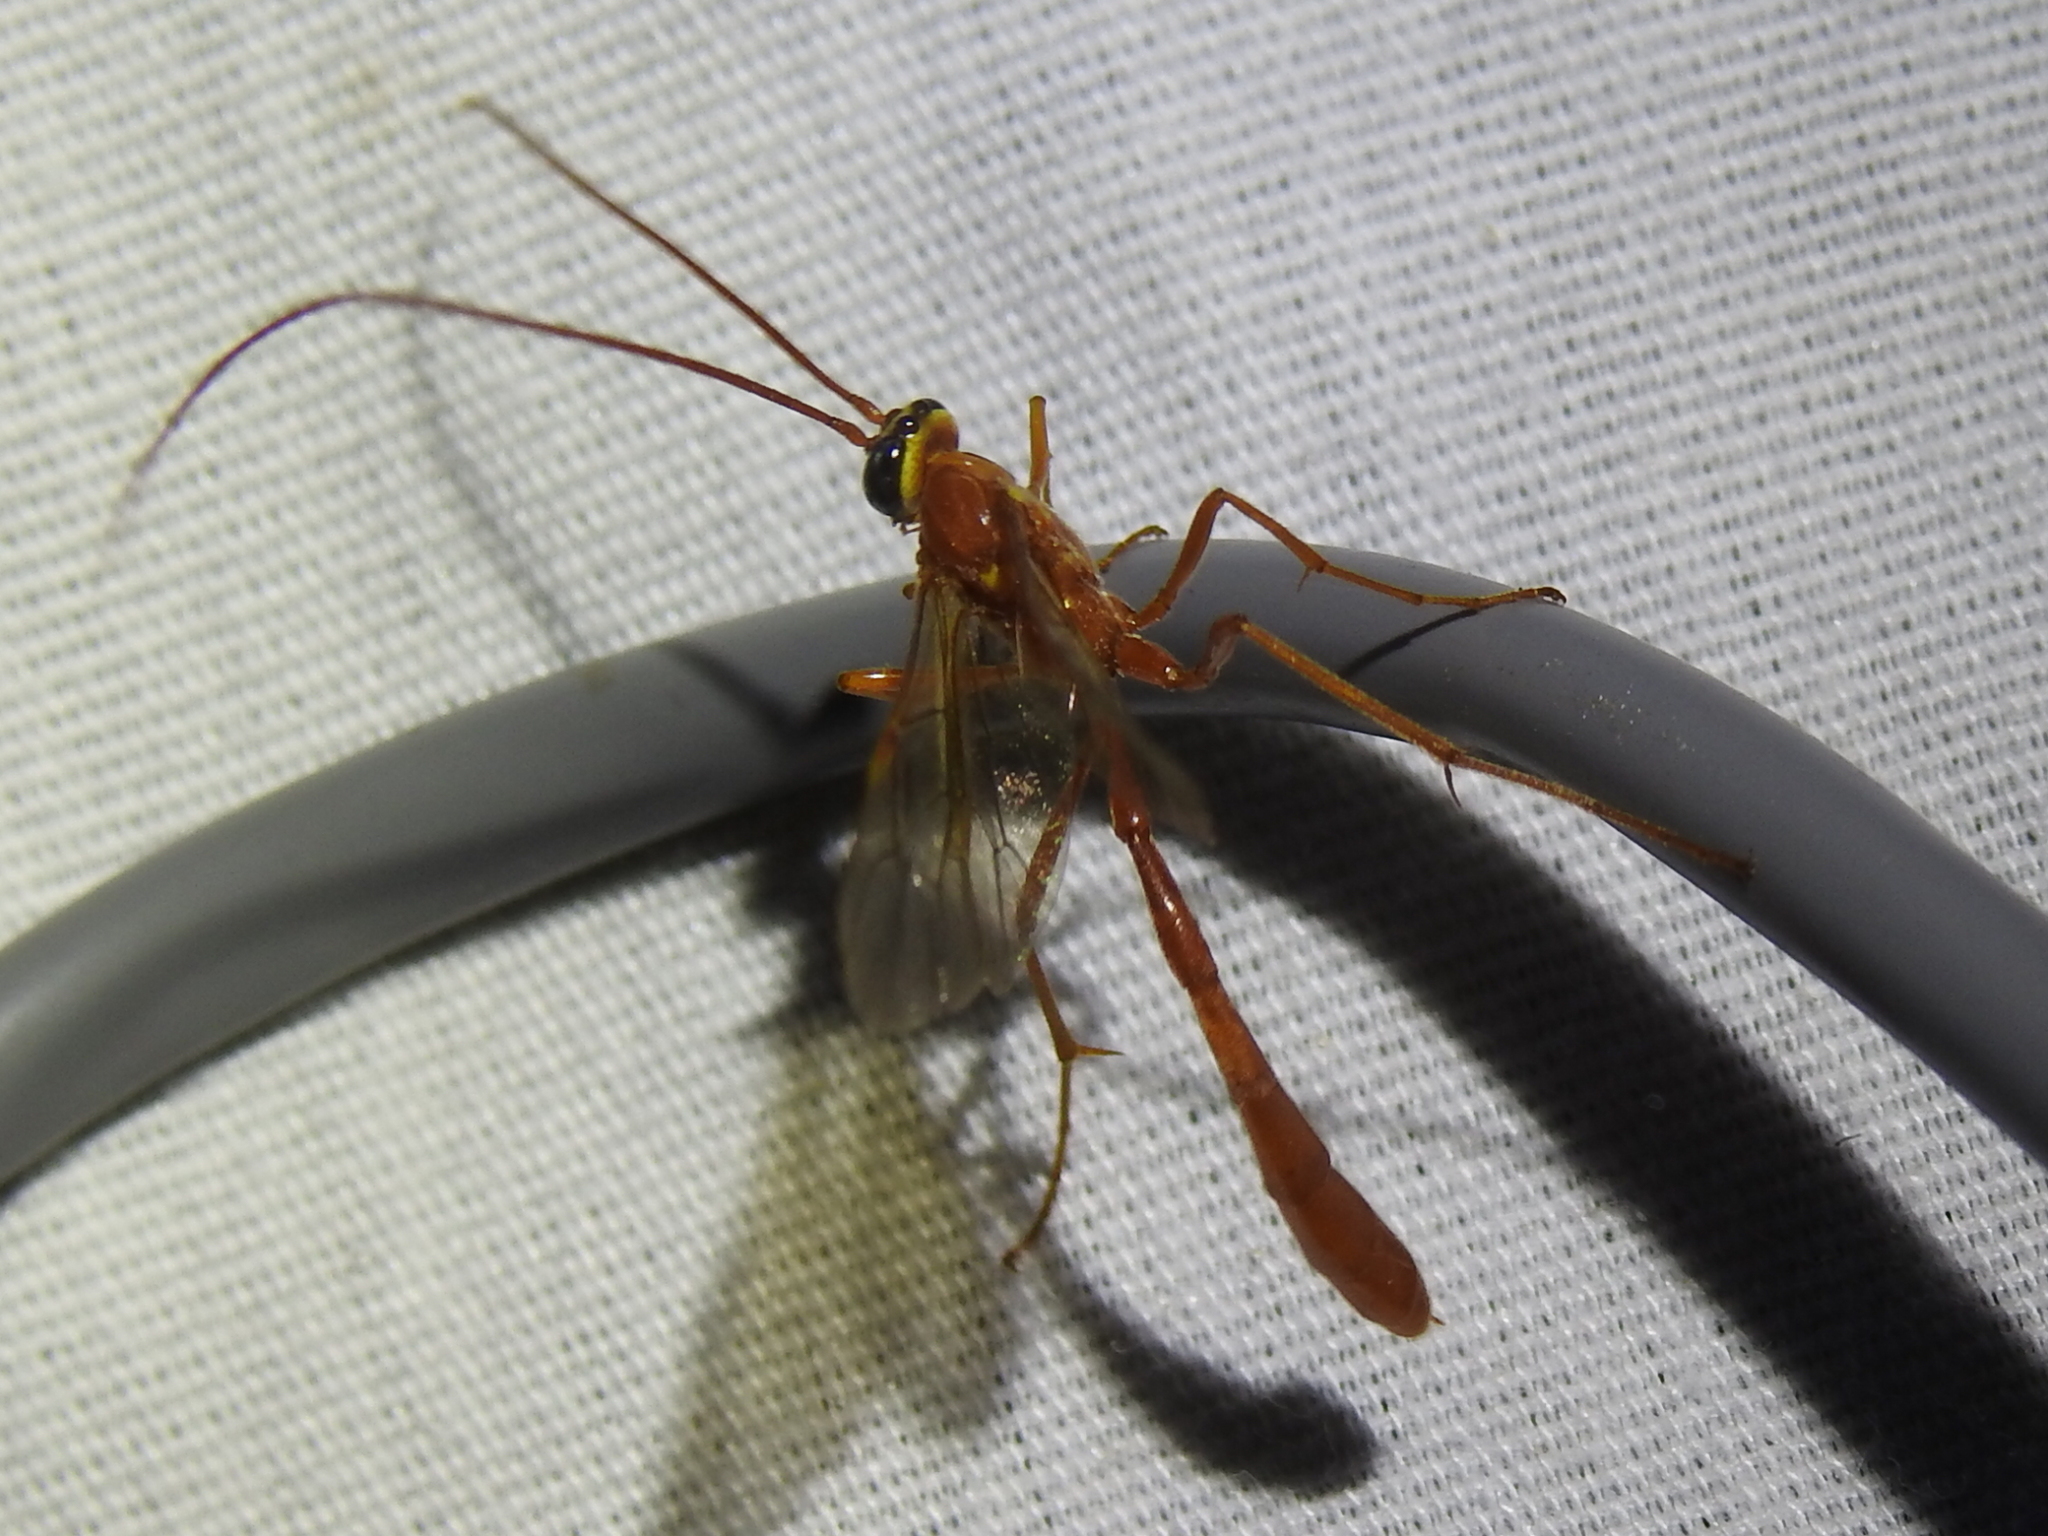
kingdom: Animalia
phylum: Arthropoda
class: Insecta
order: Hymenoptera
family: Ichneumonidae
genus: Enicospilus
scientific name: Enicospilus purgatus
